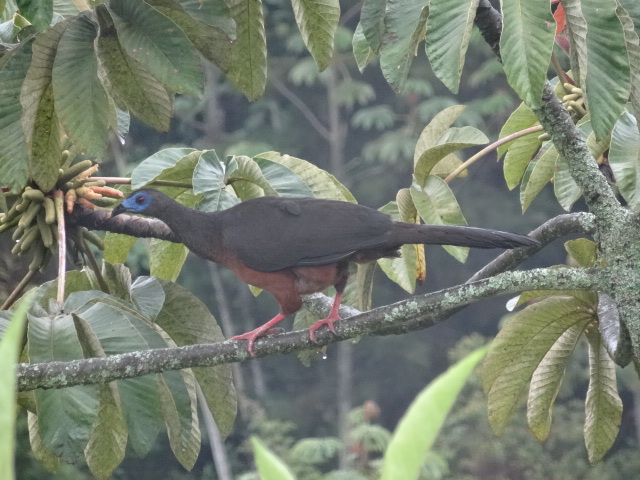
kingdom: Animalia
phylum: Chordata
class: Aves
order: Galliformes
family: Cracidae
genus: Chamaepetes
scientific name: Chamaepetes goudotii
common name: Sickle-winged guan
